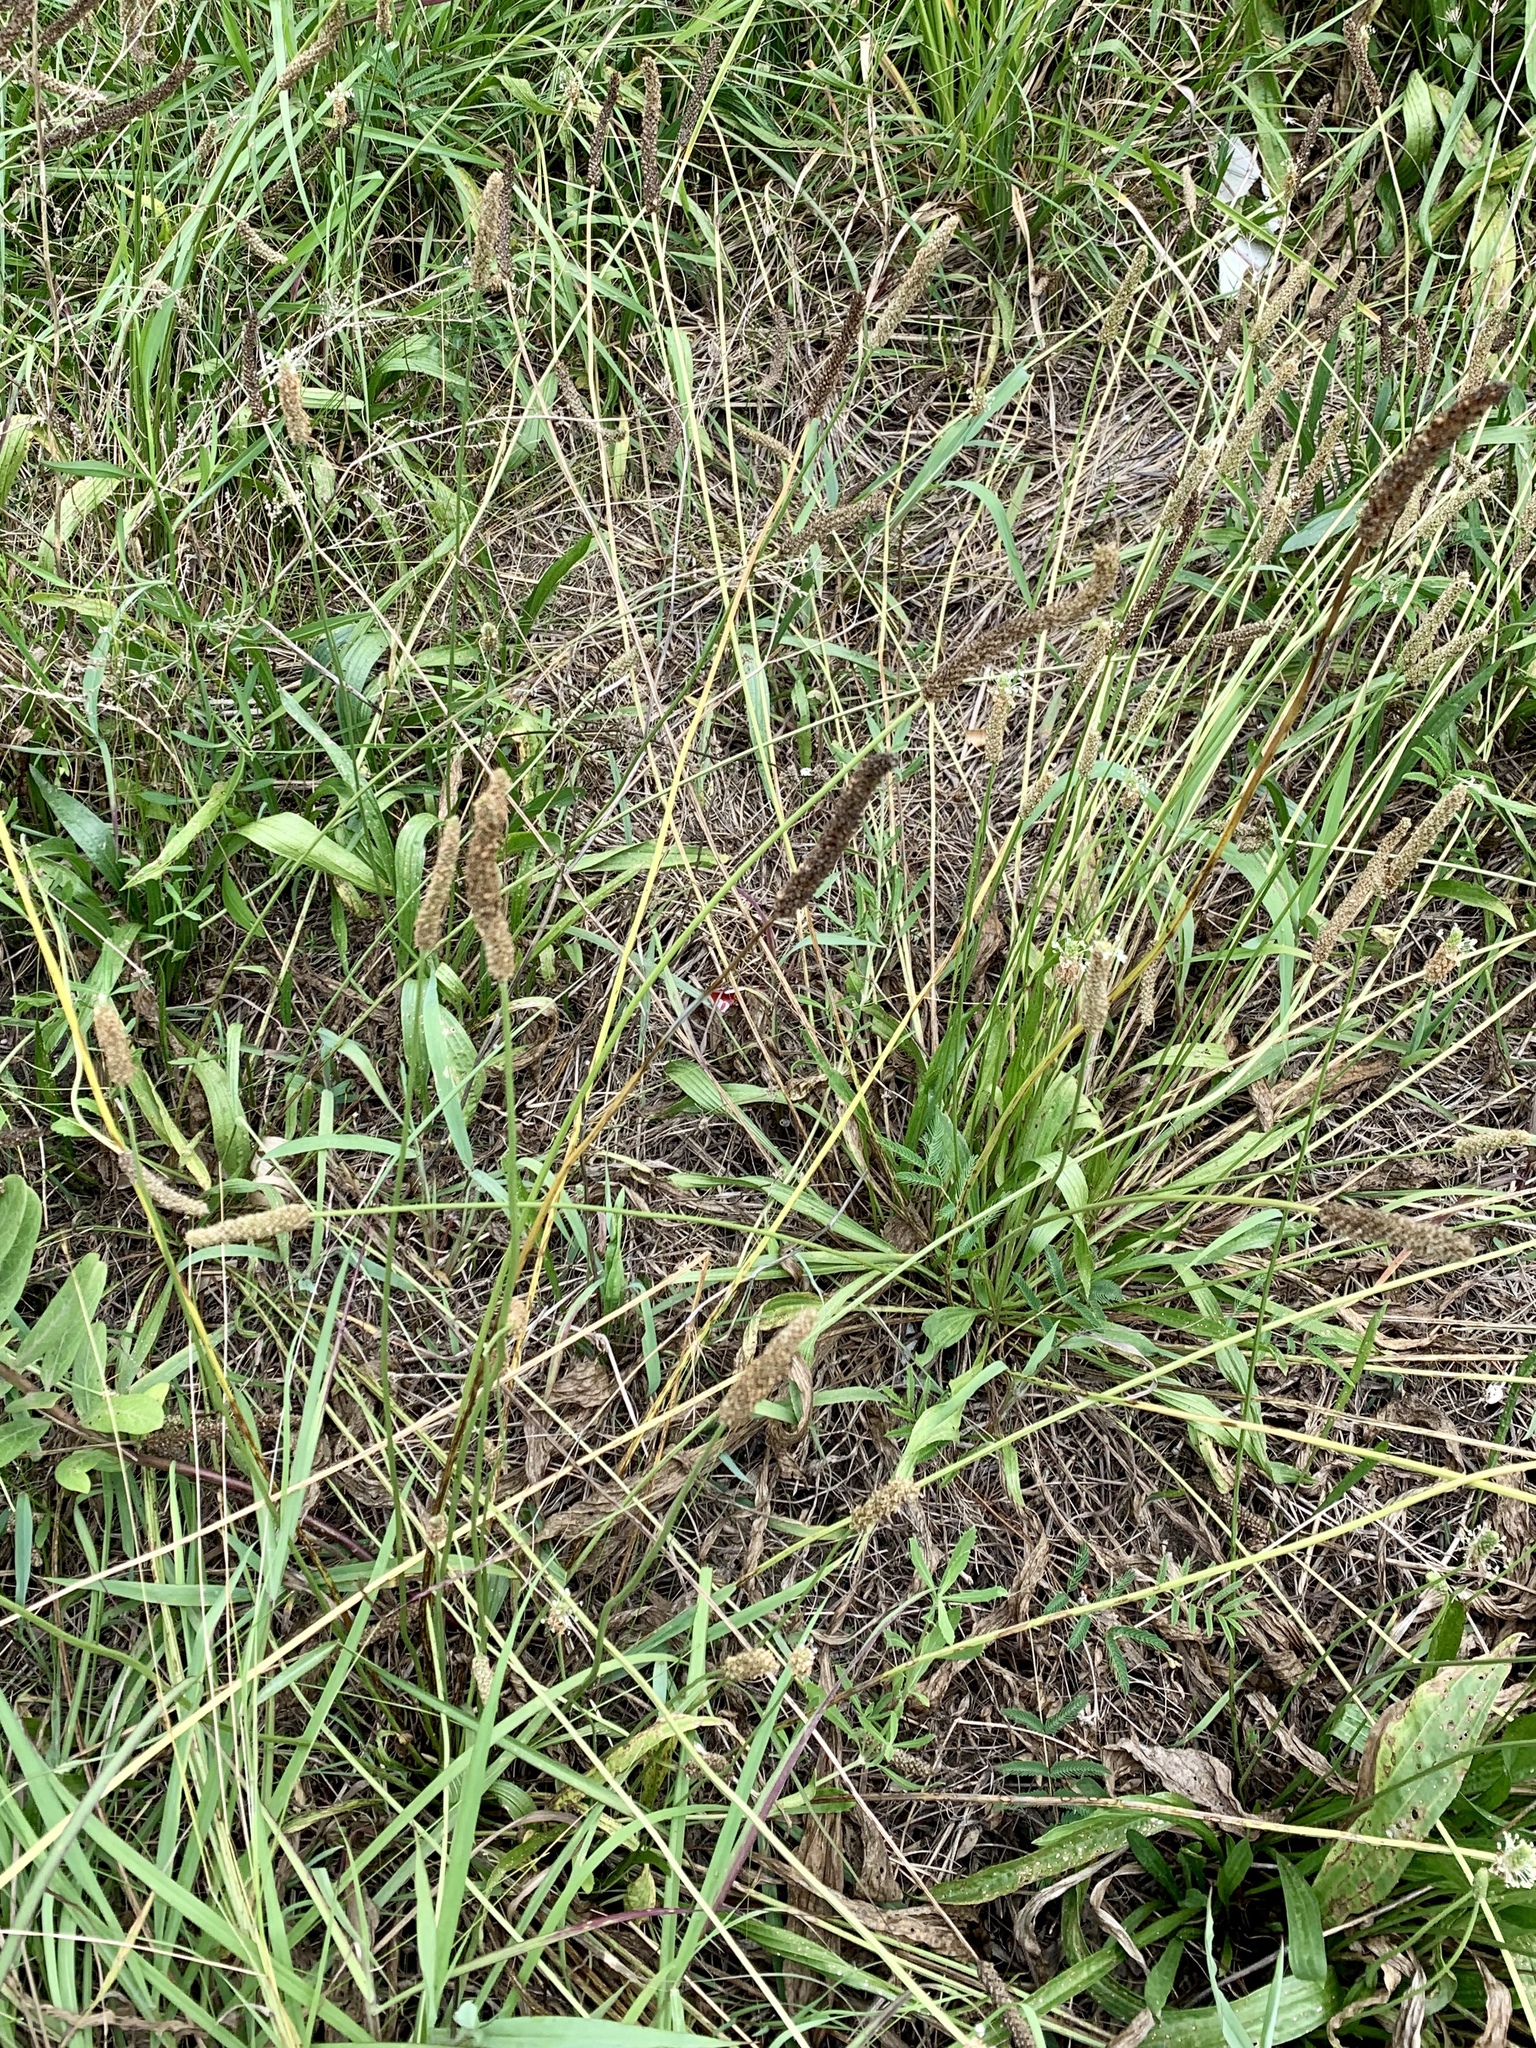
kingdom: Plantae
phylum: Tracheophyta
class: Magnoliopsida
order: Lamiales
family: Plantaginaceae
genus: Plantago
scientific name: Plantago lanceolata
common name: Ribwort plantain
